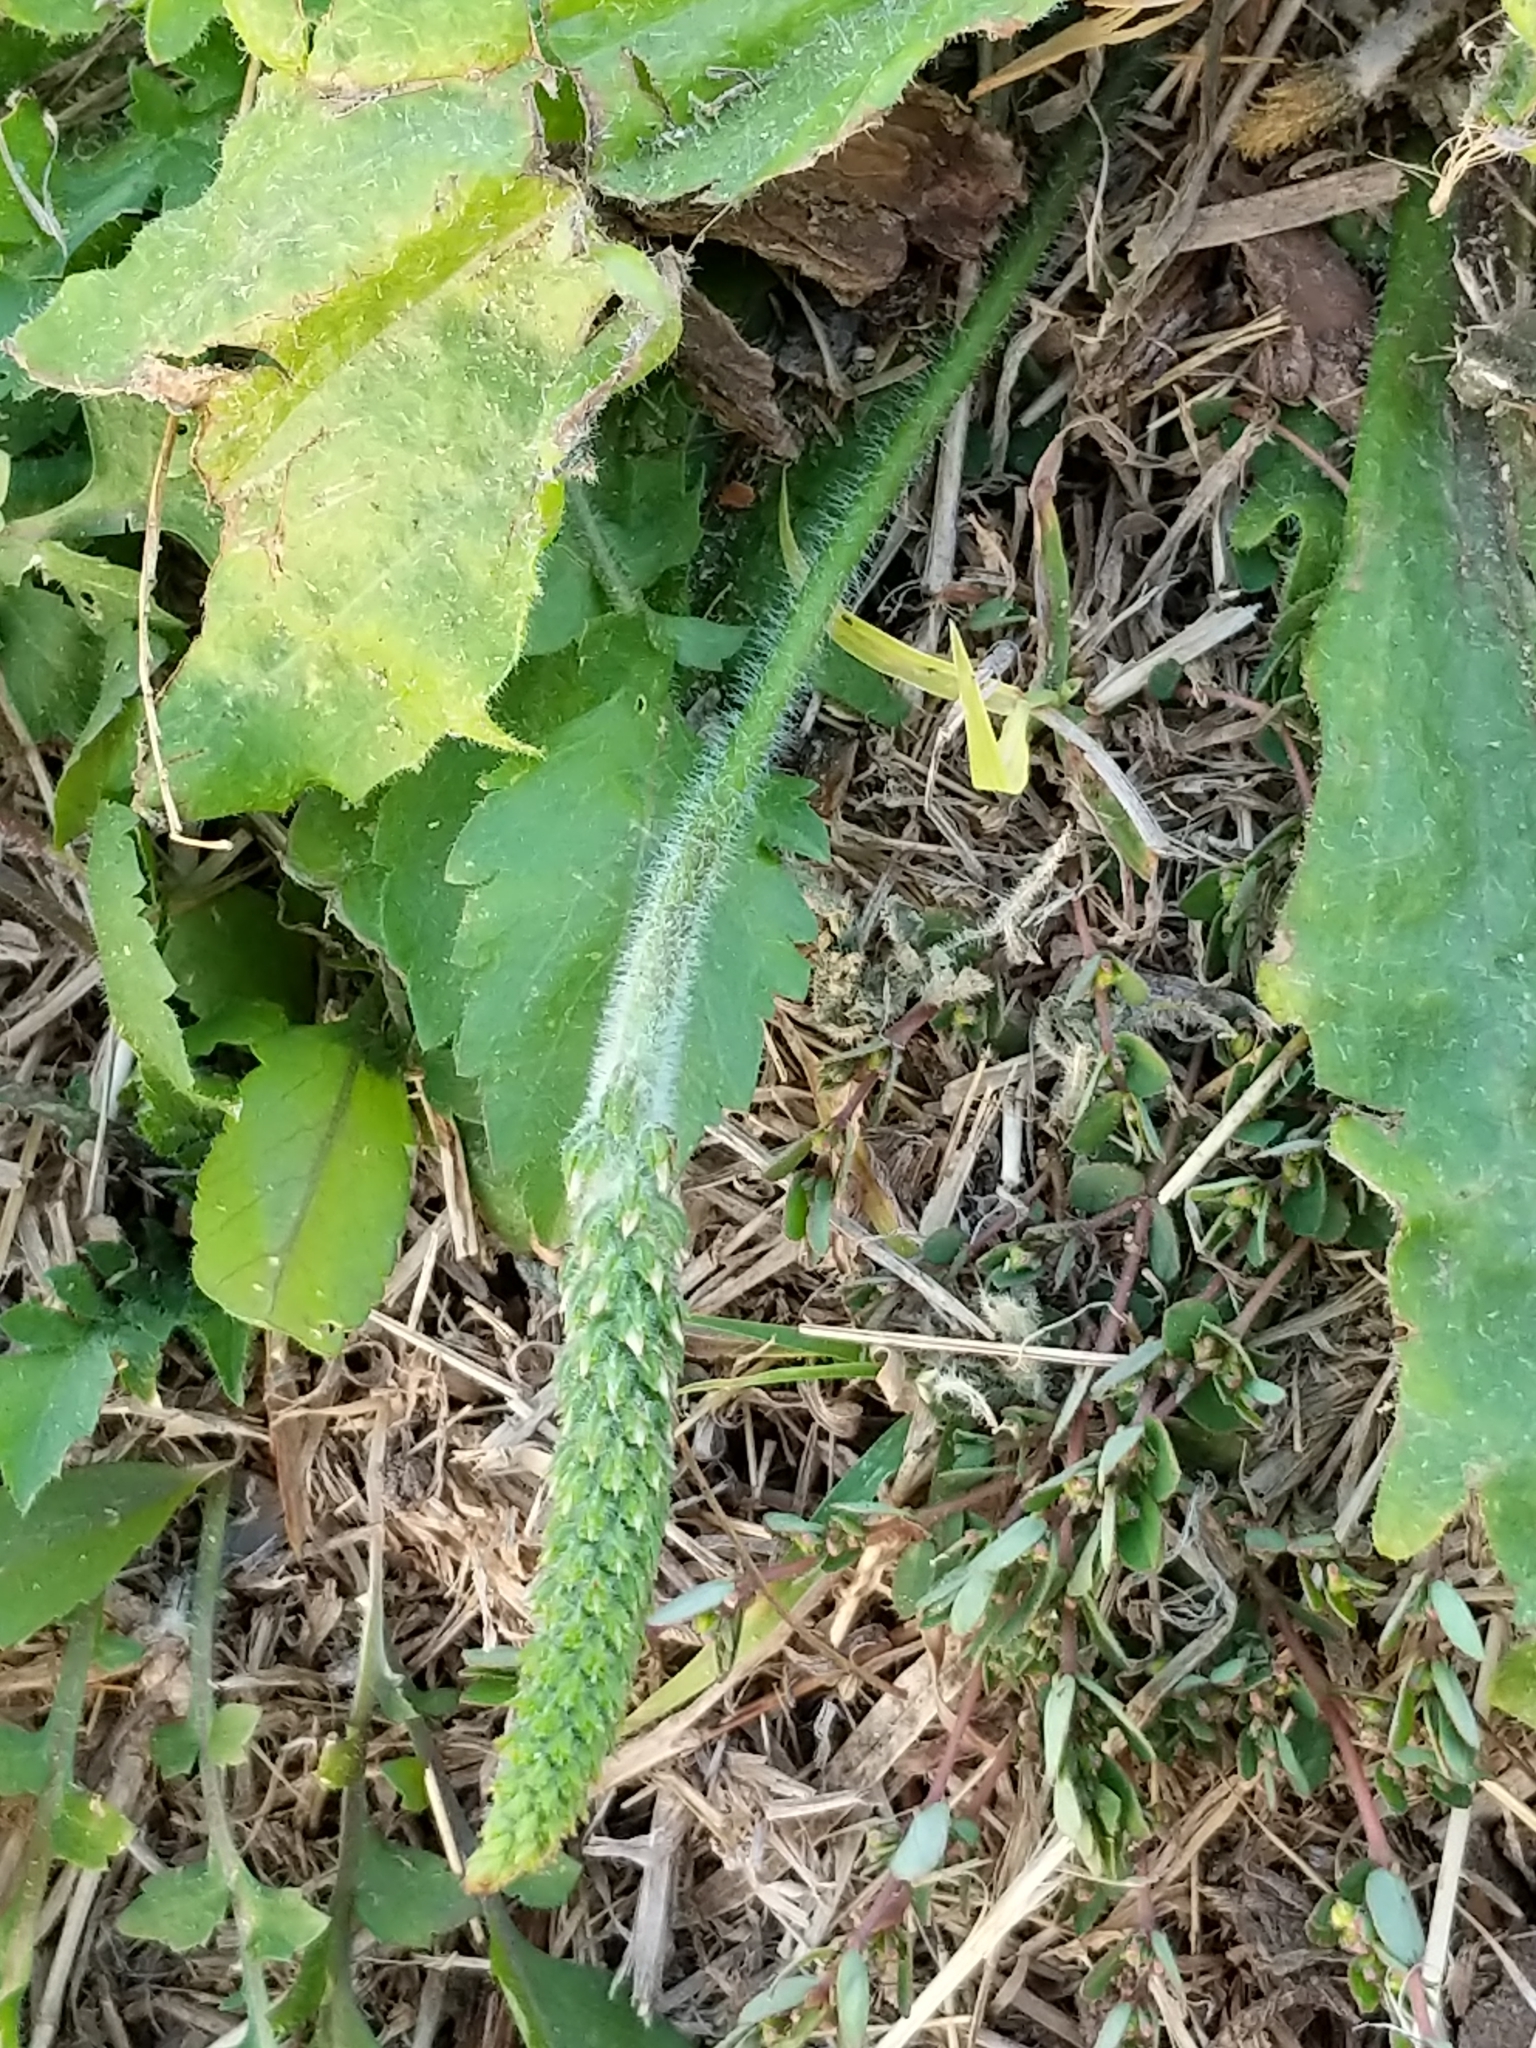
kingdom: Plantae
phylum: Tracheophyta
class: Magnoliopsida
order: Lamiales
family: Plantaginaceae
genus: Plantago
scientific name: Plantago rhodosperma
